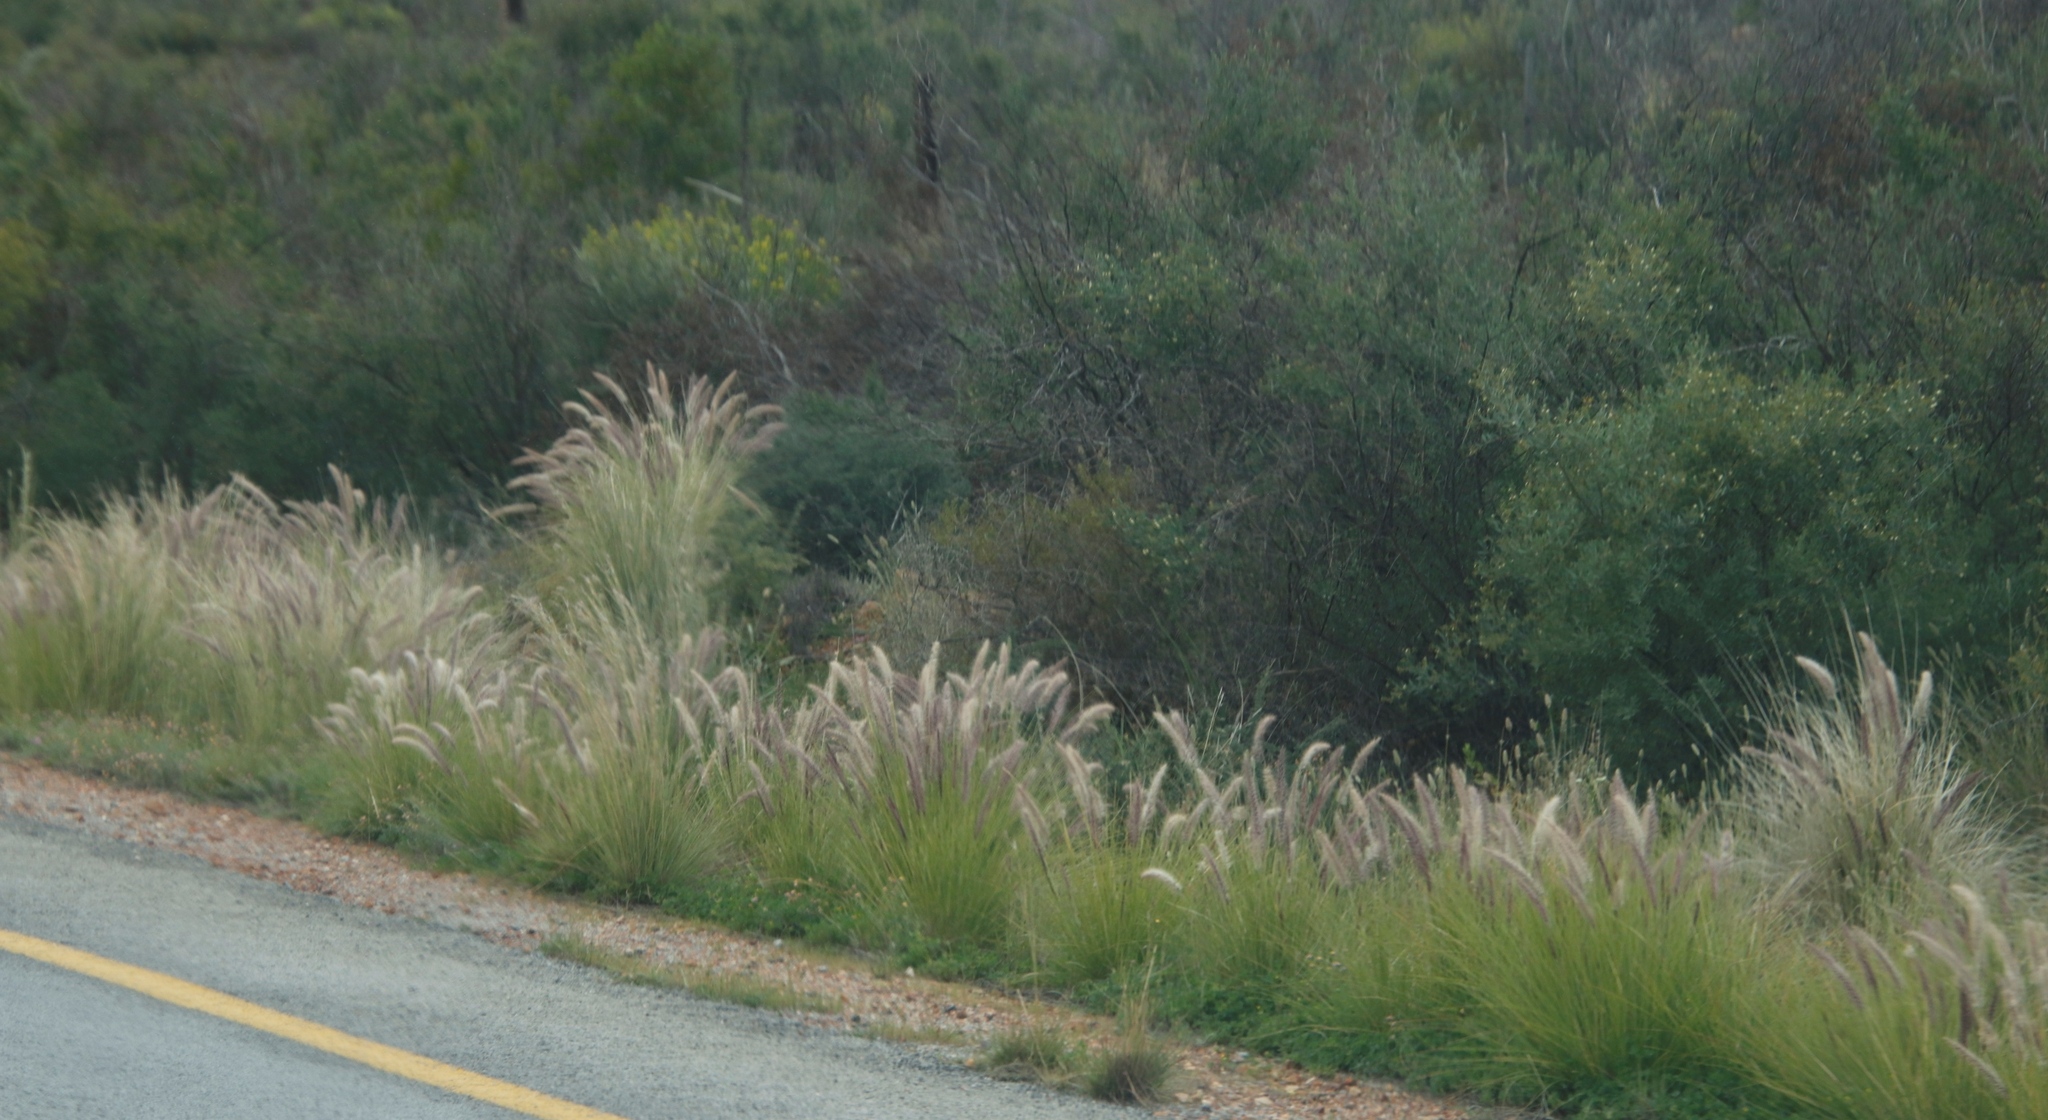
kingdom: Plantae
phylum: Tracheophyta
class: Liliopsida
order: Poales
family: Poaceae
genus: Cenchrus
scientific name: Cenchrus setaceus
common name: Crimson fountaingrass
